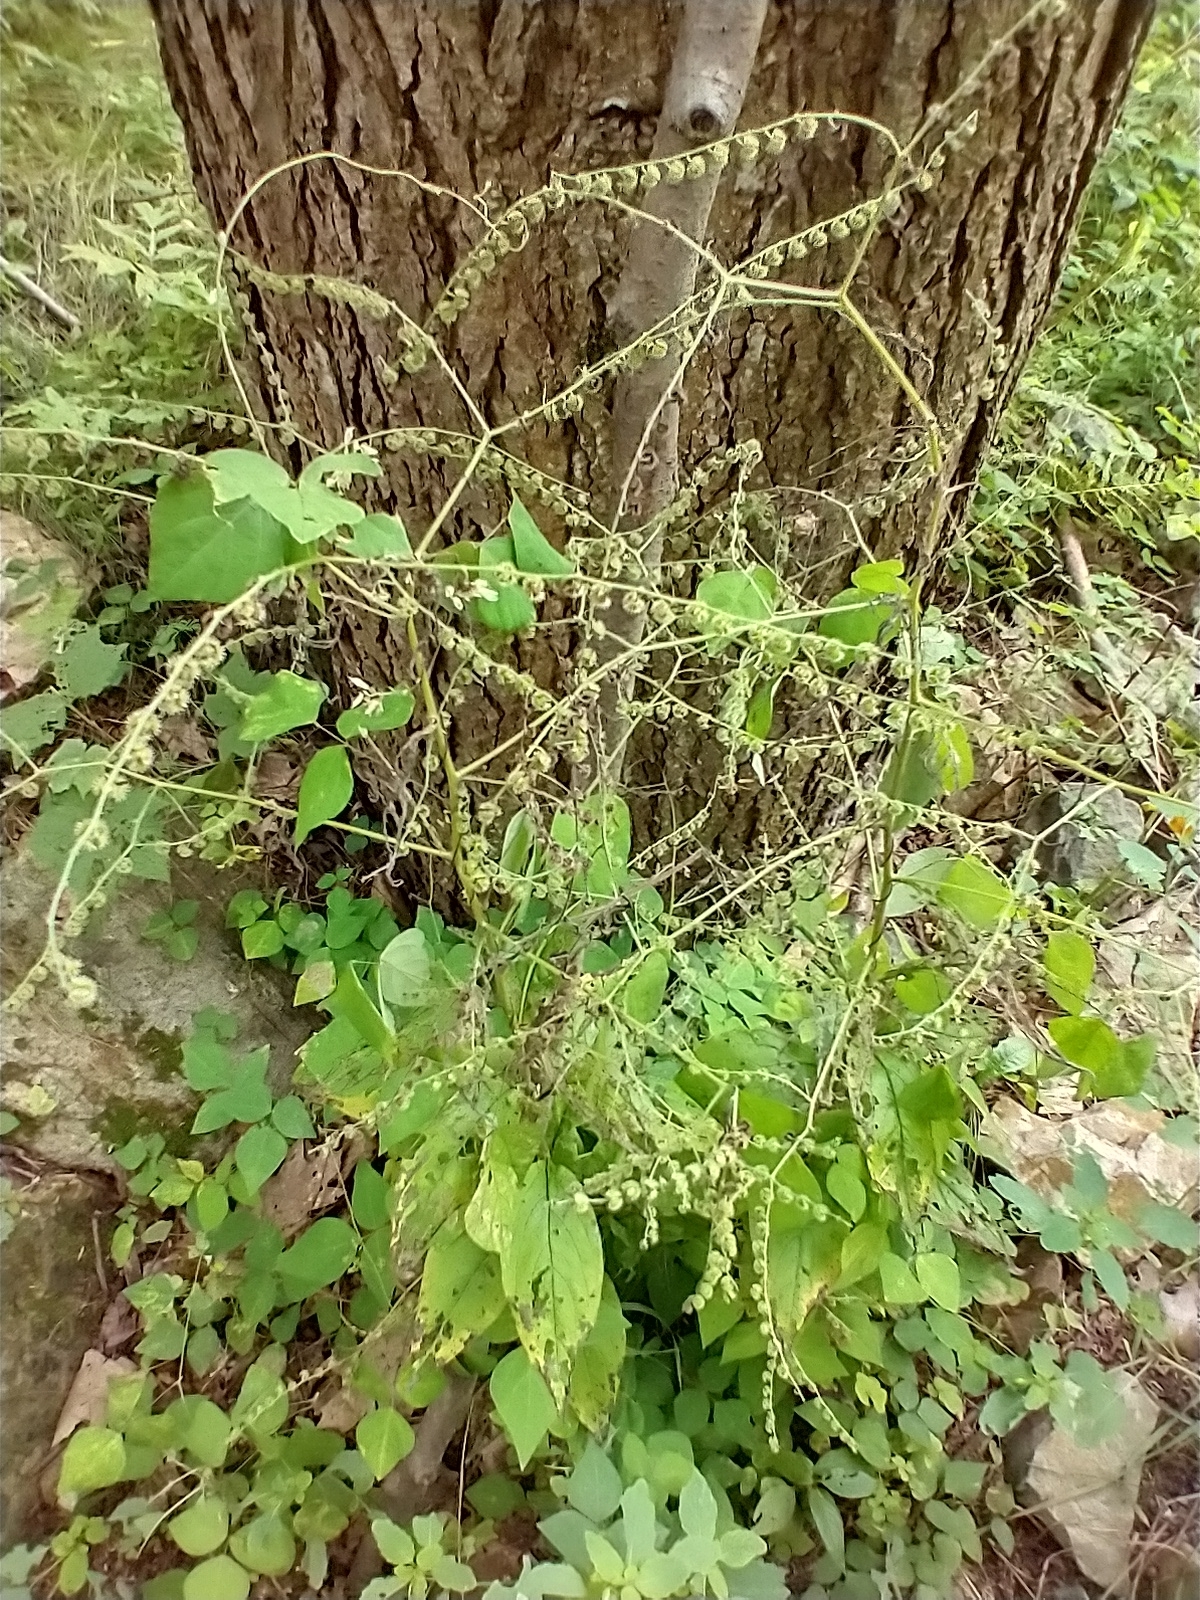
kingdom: Plantae
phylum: Tracheophyta
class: Magnoliopsida
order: Boraginales
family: Boraginaceae
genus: Hackelia
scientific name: Hackelia virginiana
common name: Beggar's-lice
